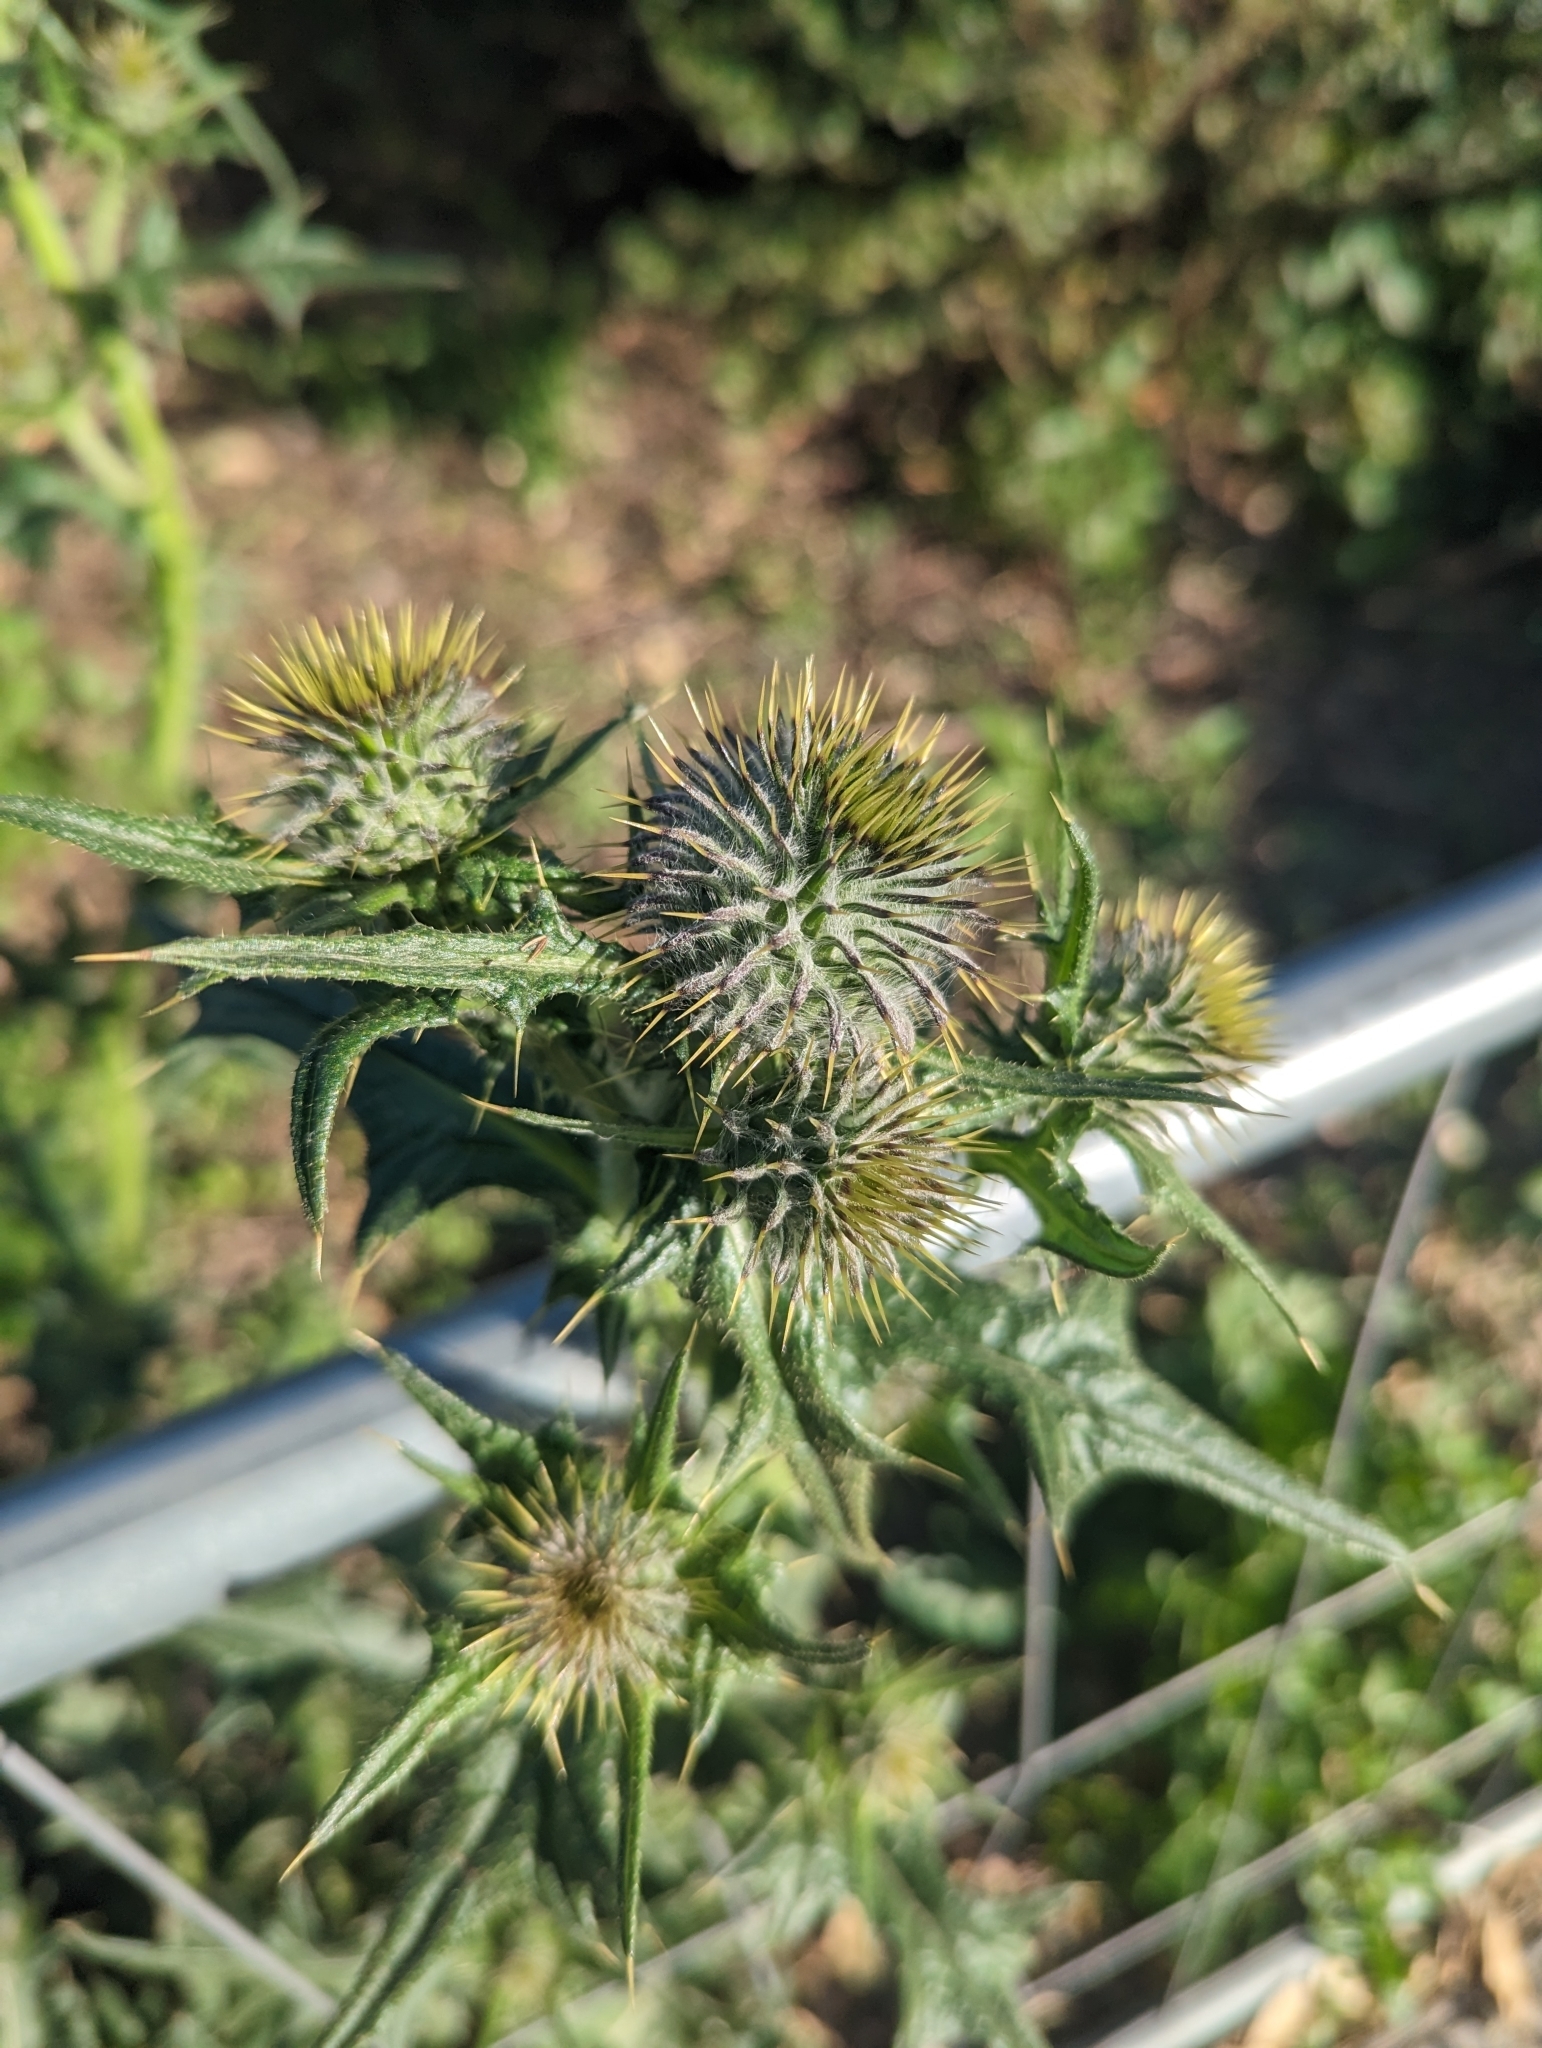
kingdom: Plantae
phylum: Tracheophyta
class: Magnoliopsida
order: Asterales
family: Asteraceae
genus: Cirsium
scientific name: Cirsium vulgare
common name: Bull thistle
